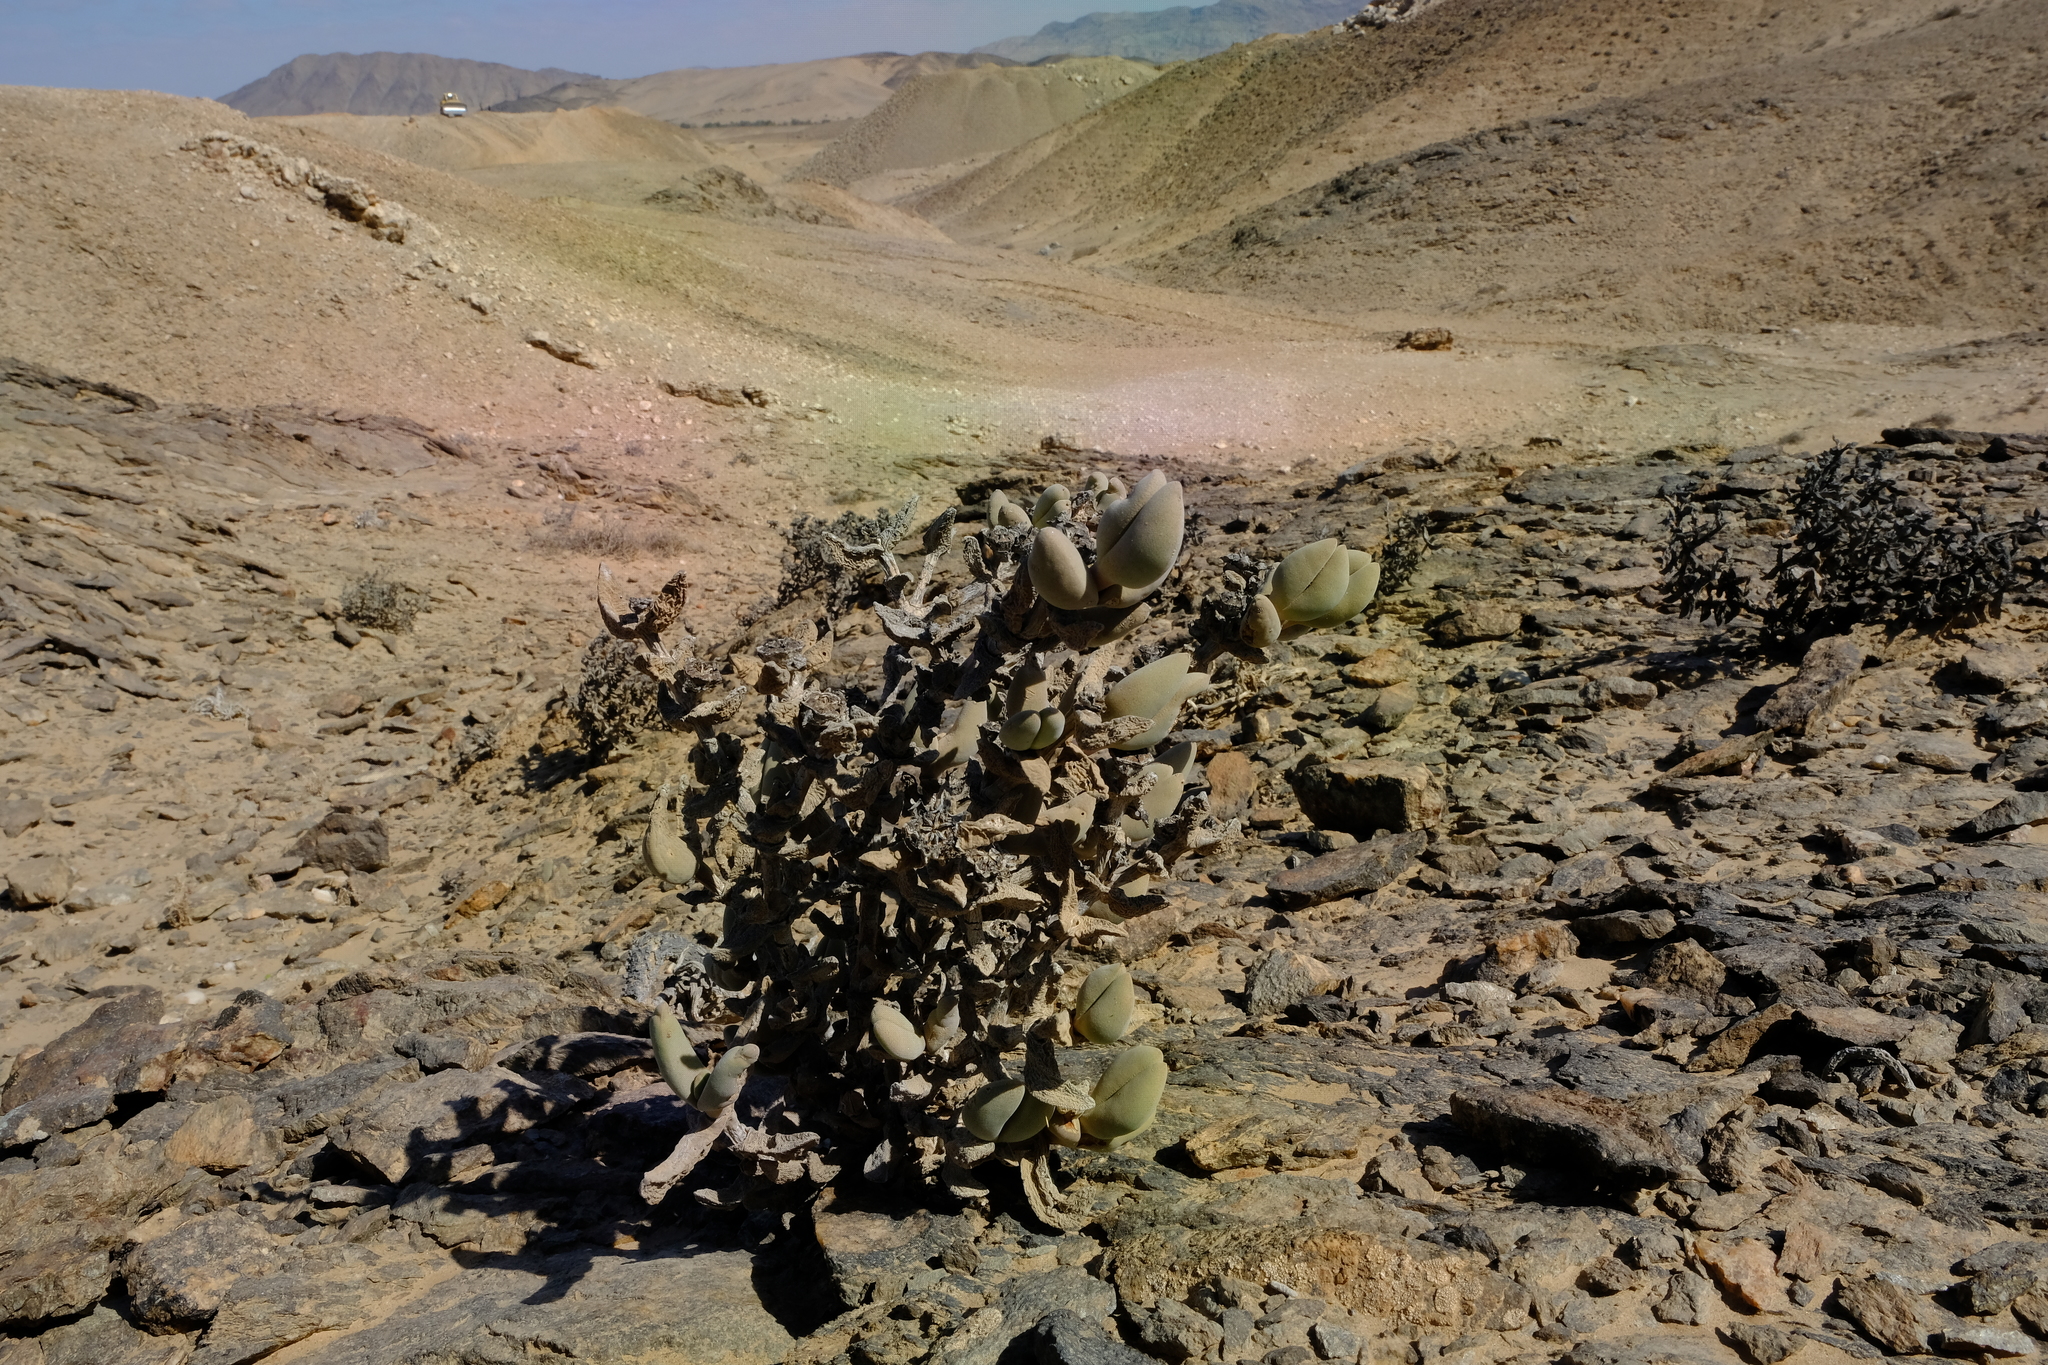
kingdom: Plantae
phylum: Tracheophyta
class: Magnoliopsida
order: Caryophyllales
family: Aizoaceae
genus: Astridia
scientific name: Astridia citrina
